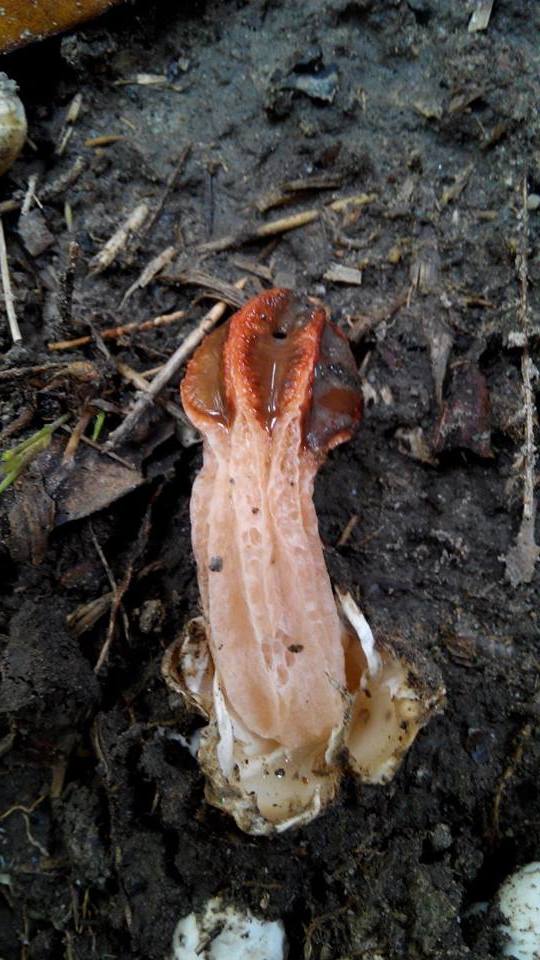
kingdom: Fungi
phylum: Basidiomycota
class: Agaricomycetes
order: Phallales
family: Phallaceae
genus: Lysurus
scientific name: Lysurus mokusin
